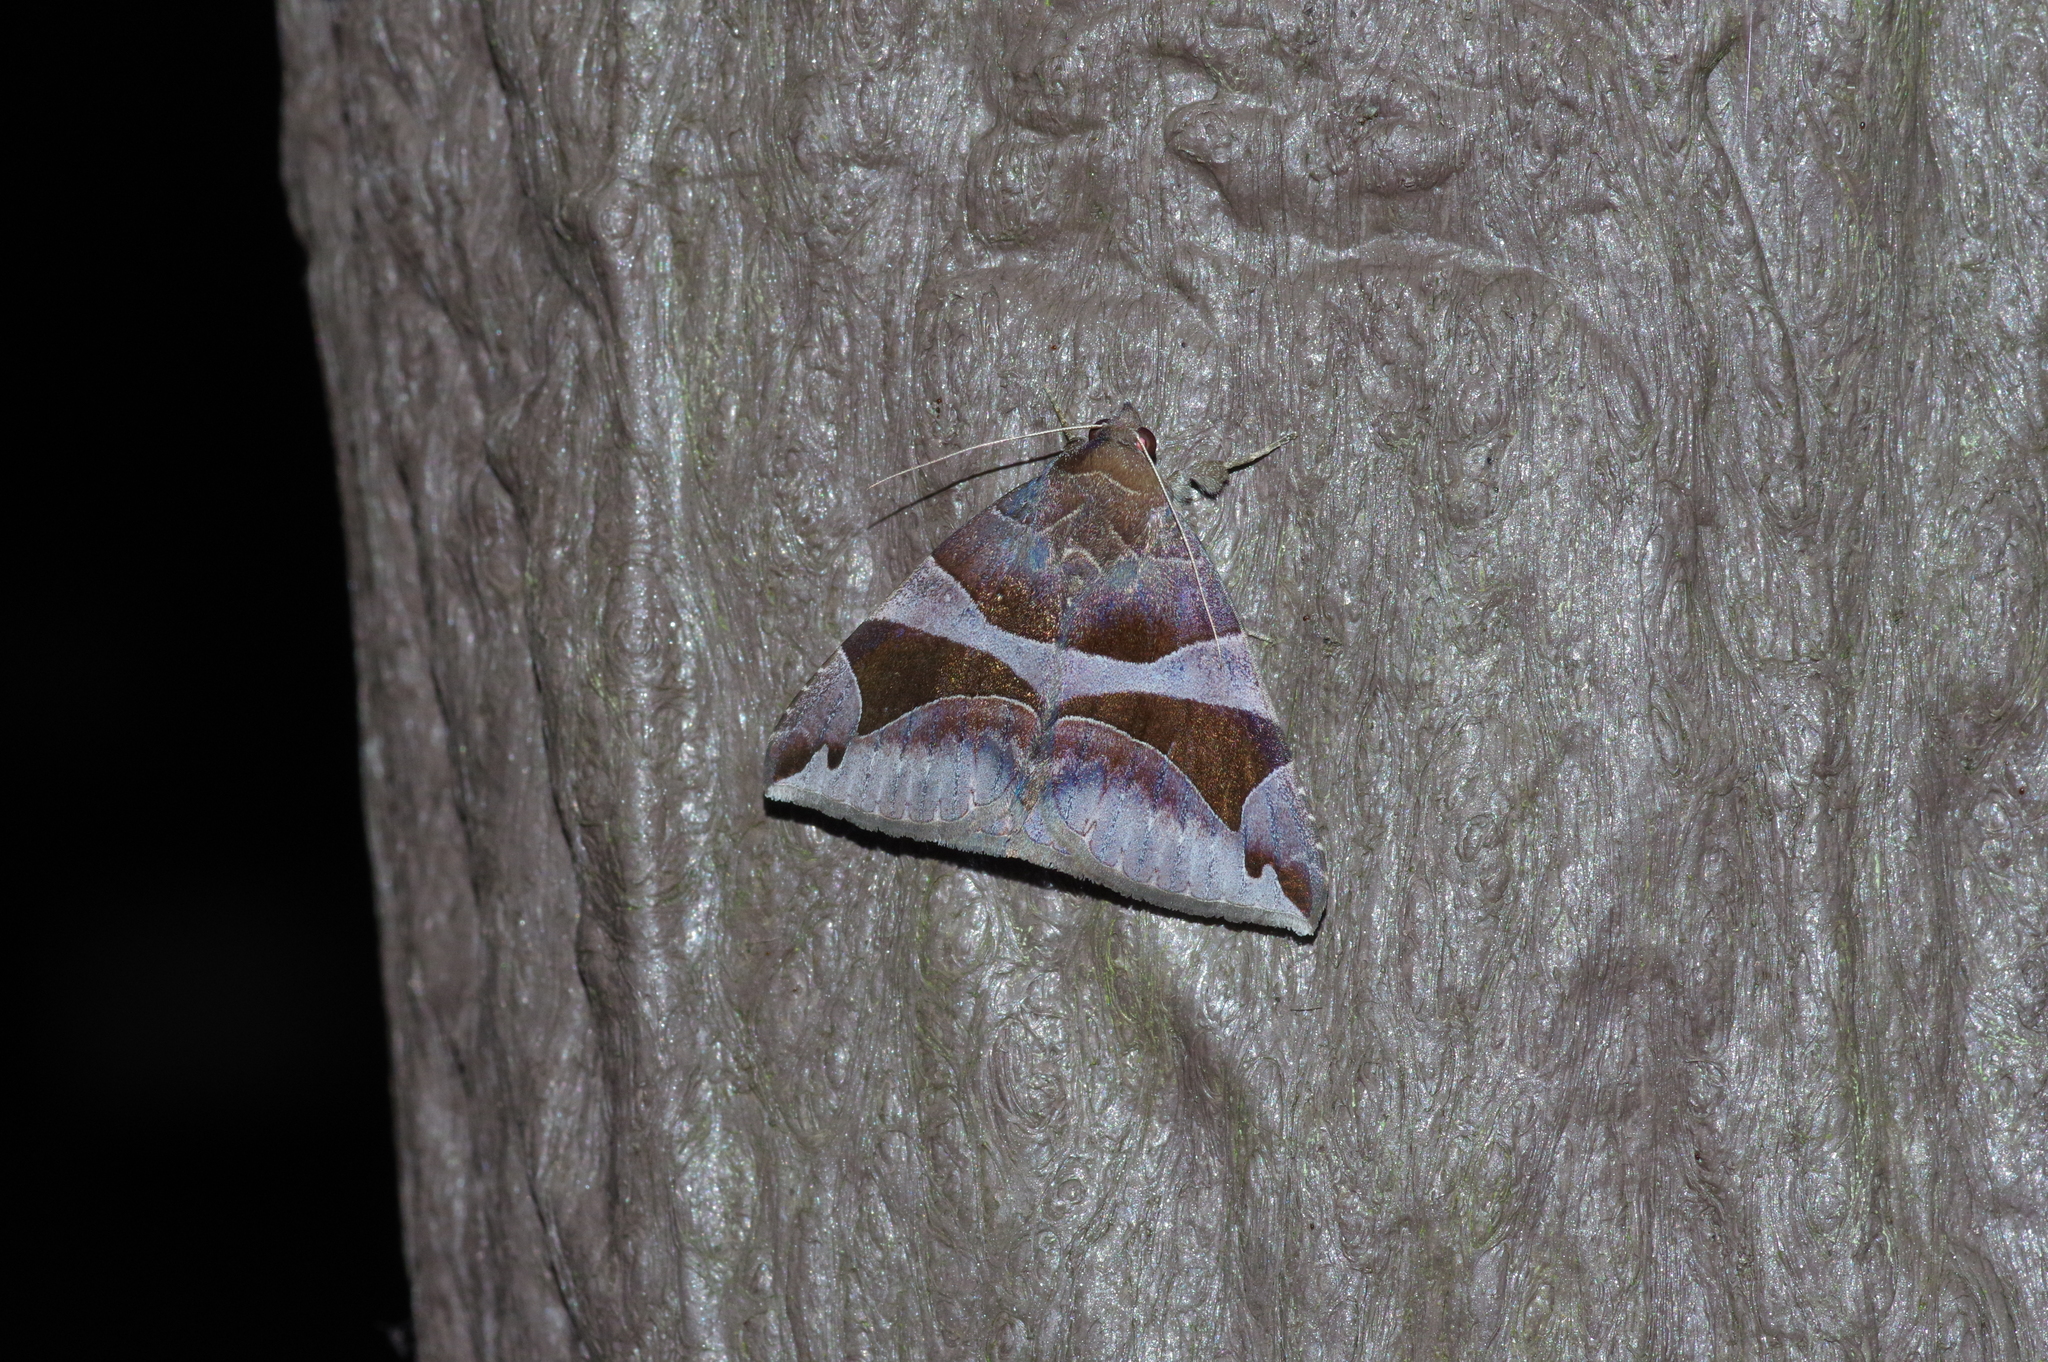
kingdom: Animalia
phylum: Arthropoda
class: Insecta
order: Lepidoptera
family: Erebidae
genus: Bastilla
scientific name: Bastilla arcuata
